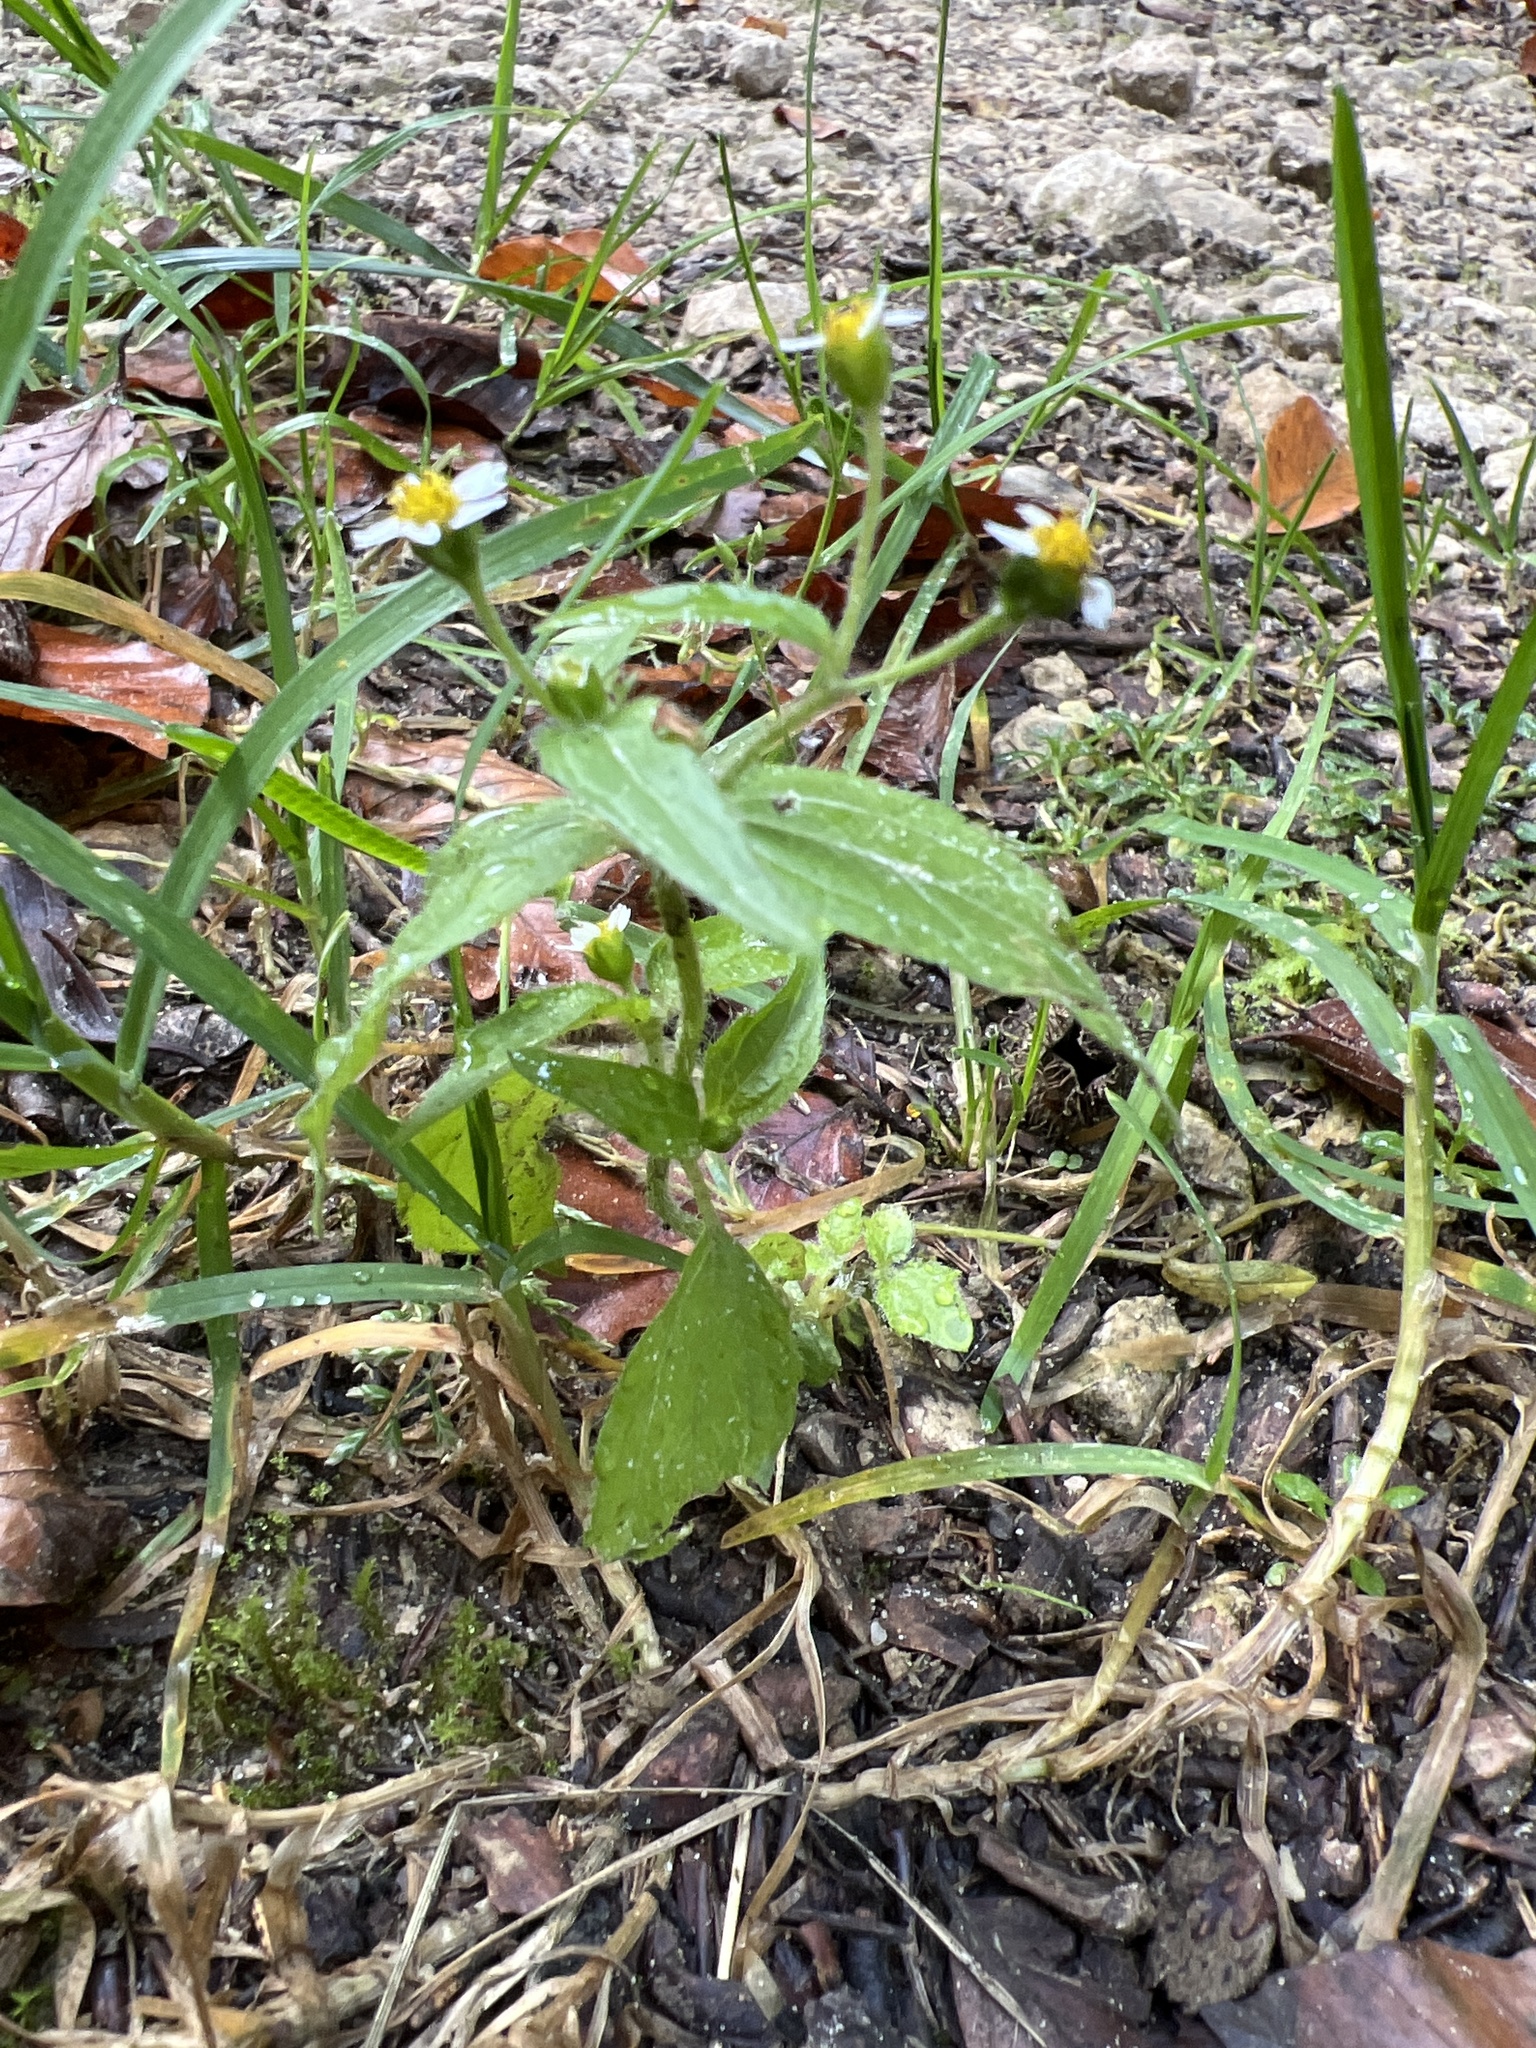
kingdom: Plantae
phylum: Tracheophyta
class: Magnoliopsida
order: Asterales
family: Asteraceae
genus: Galinsoga
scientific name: Galinsoga quadriradiata
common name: Shaggy soldier
